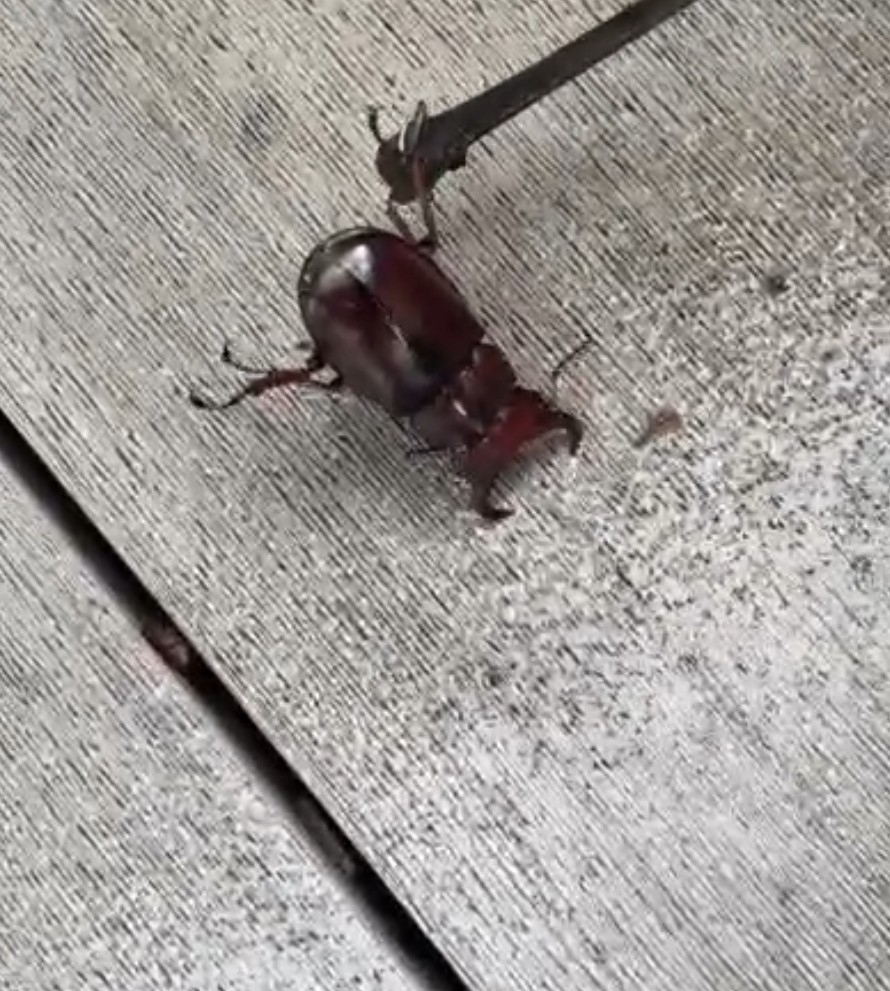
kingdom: Animalia
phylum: Arthropoda
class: Insecta
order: Coleoptera
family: Lucanidae
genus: Lucanus
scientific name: Lucanus capreolus
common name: Stag beetle
